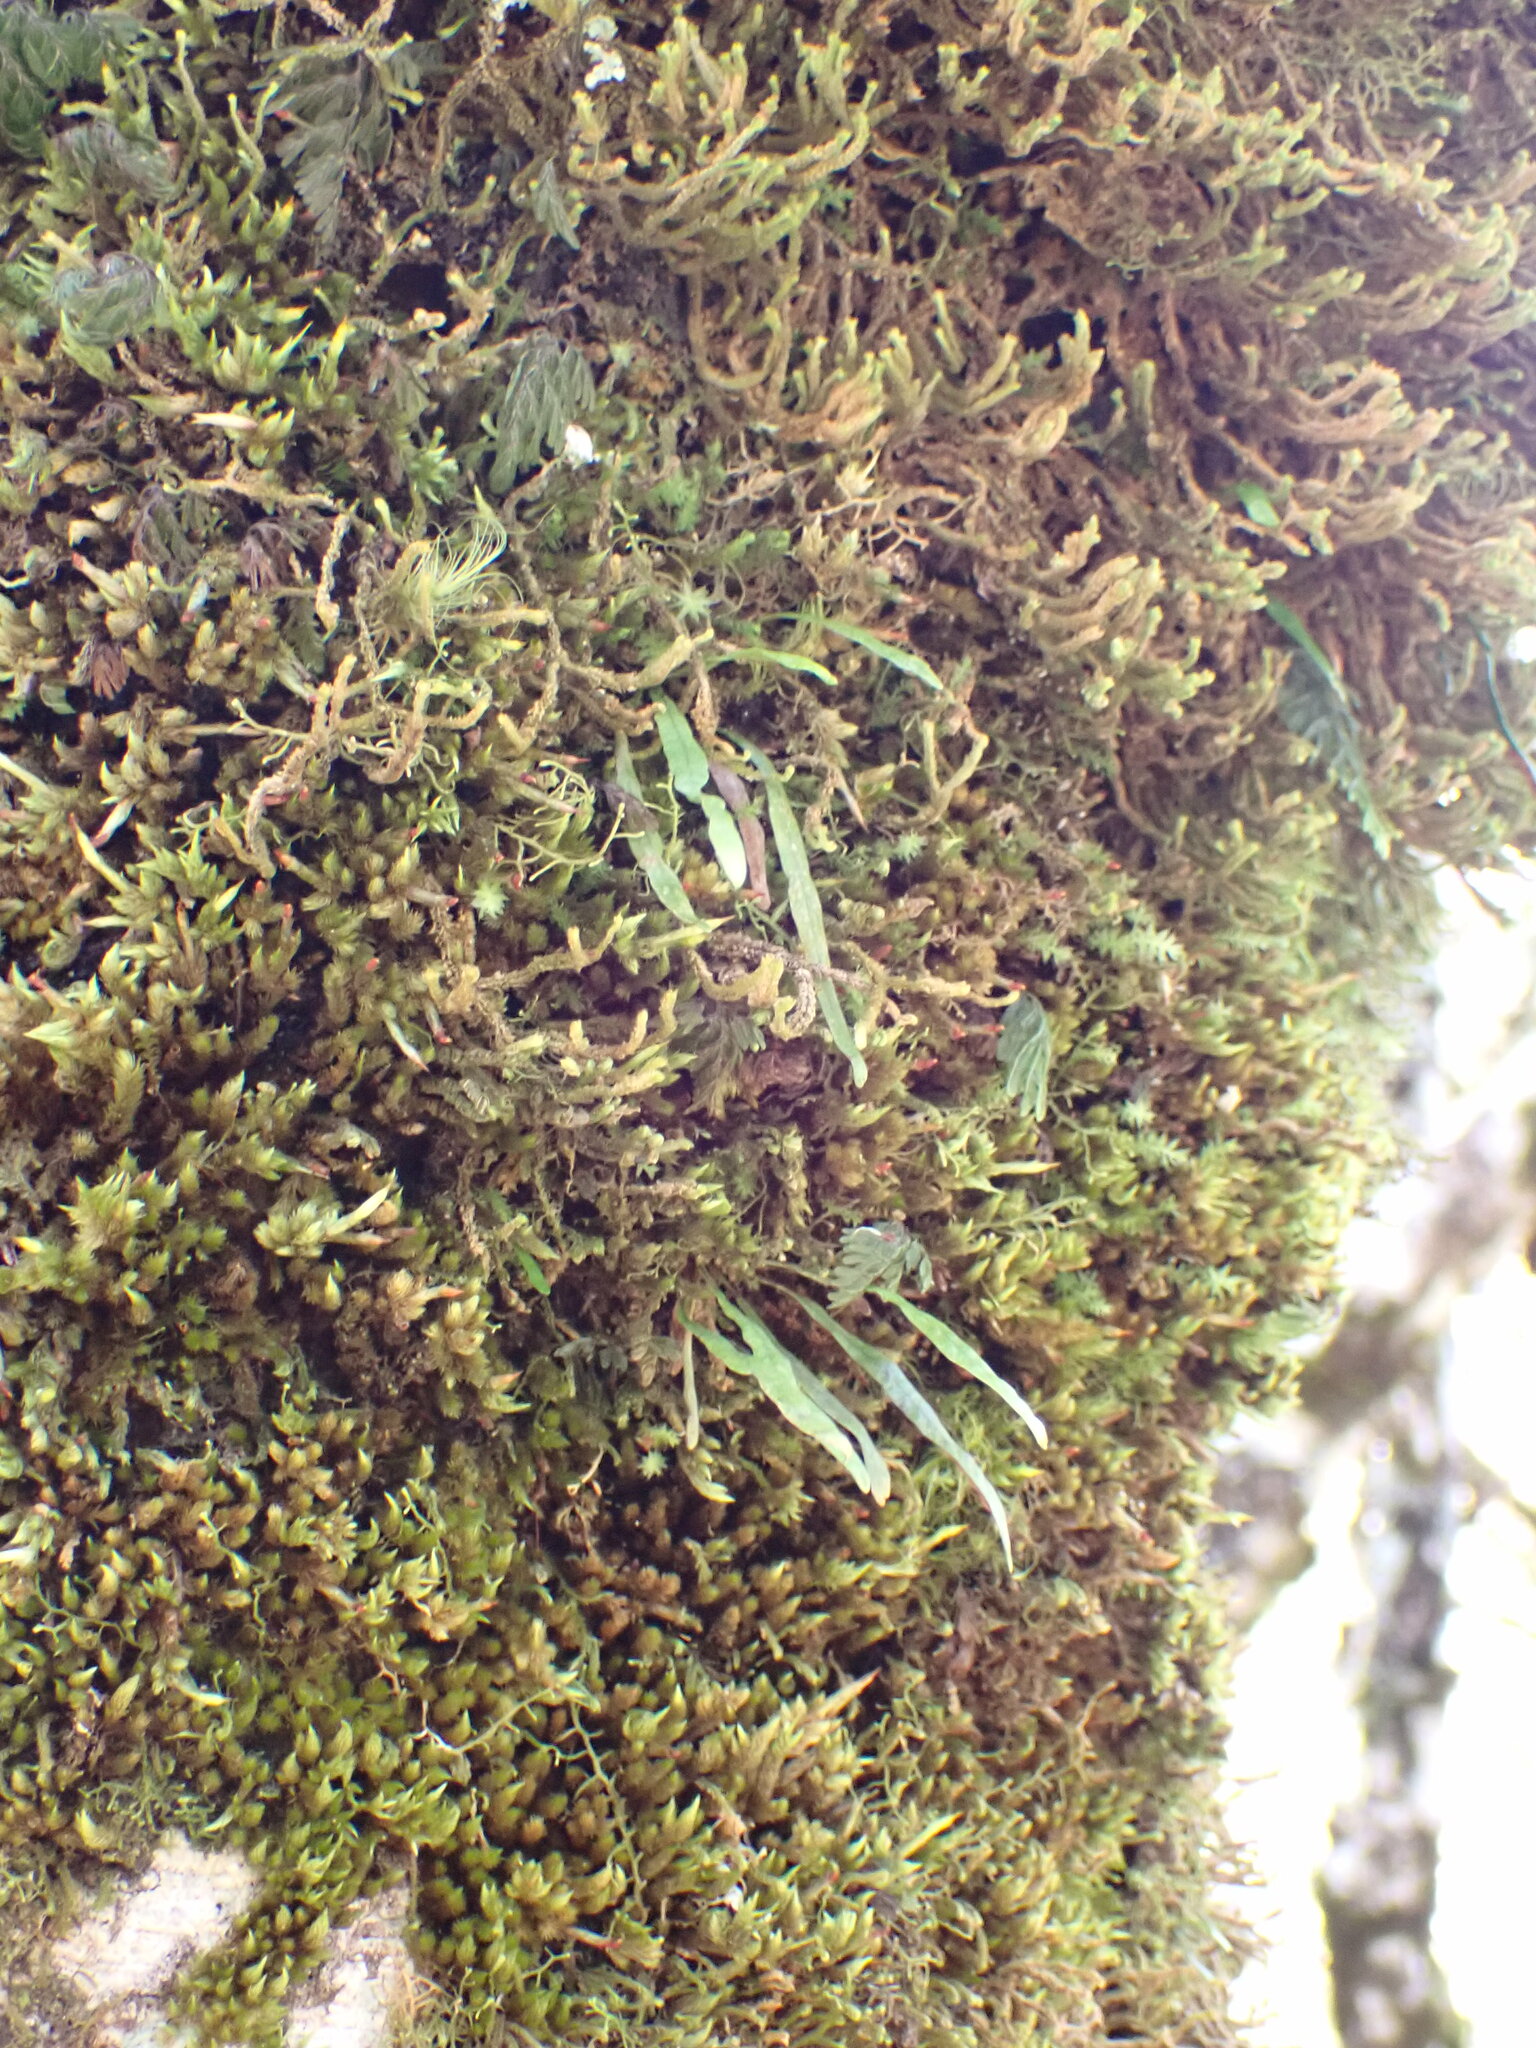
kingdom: Plantae
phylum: Tracheophyta
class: Polypodiopsida
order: Polypodiales
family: Polypodiaceae
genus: Notogrammitis
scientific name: Notogrammitis angustifolia
